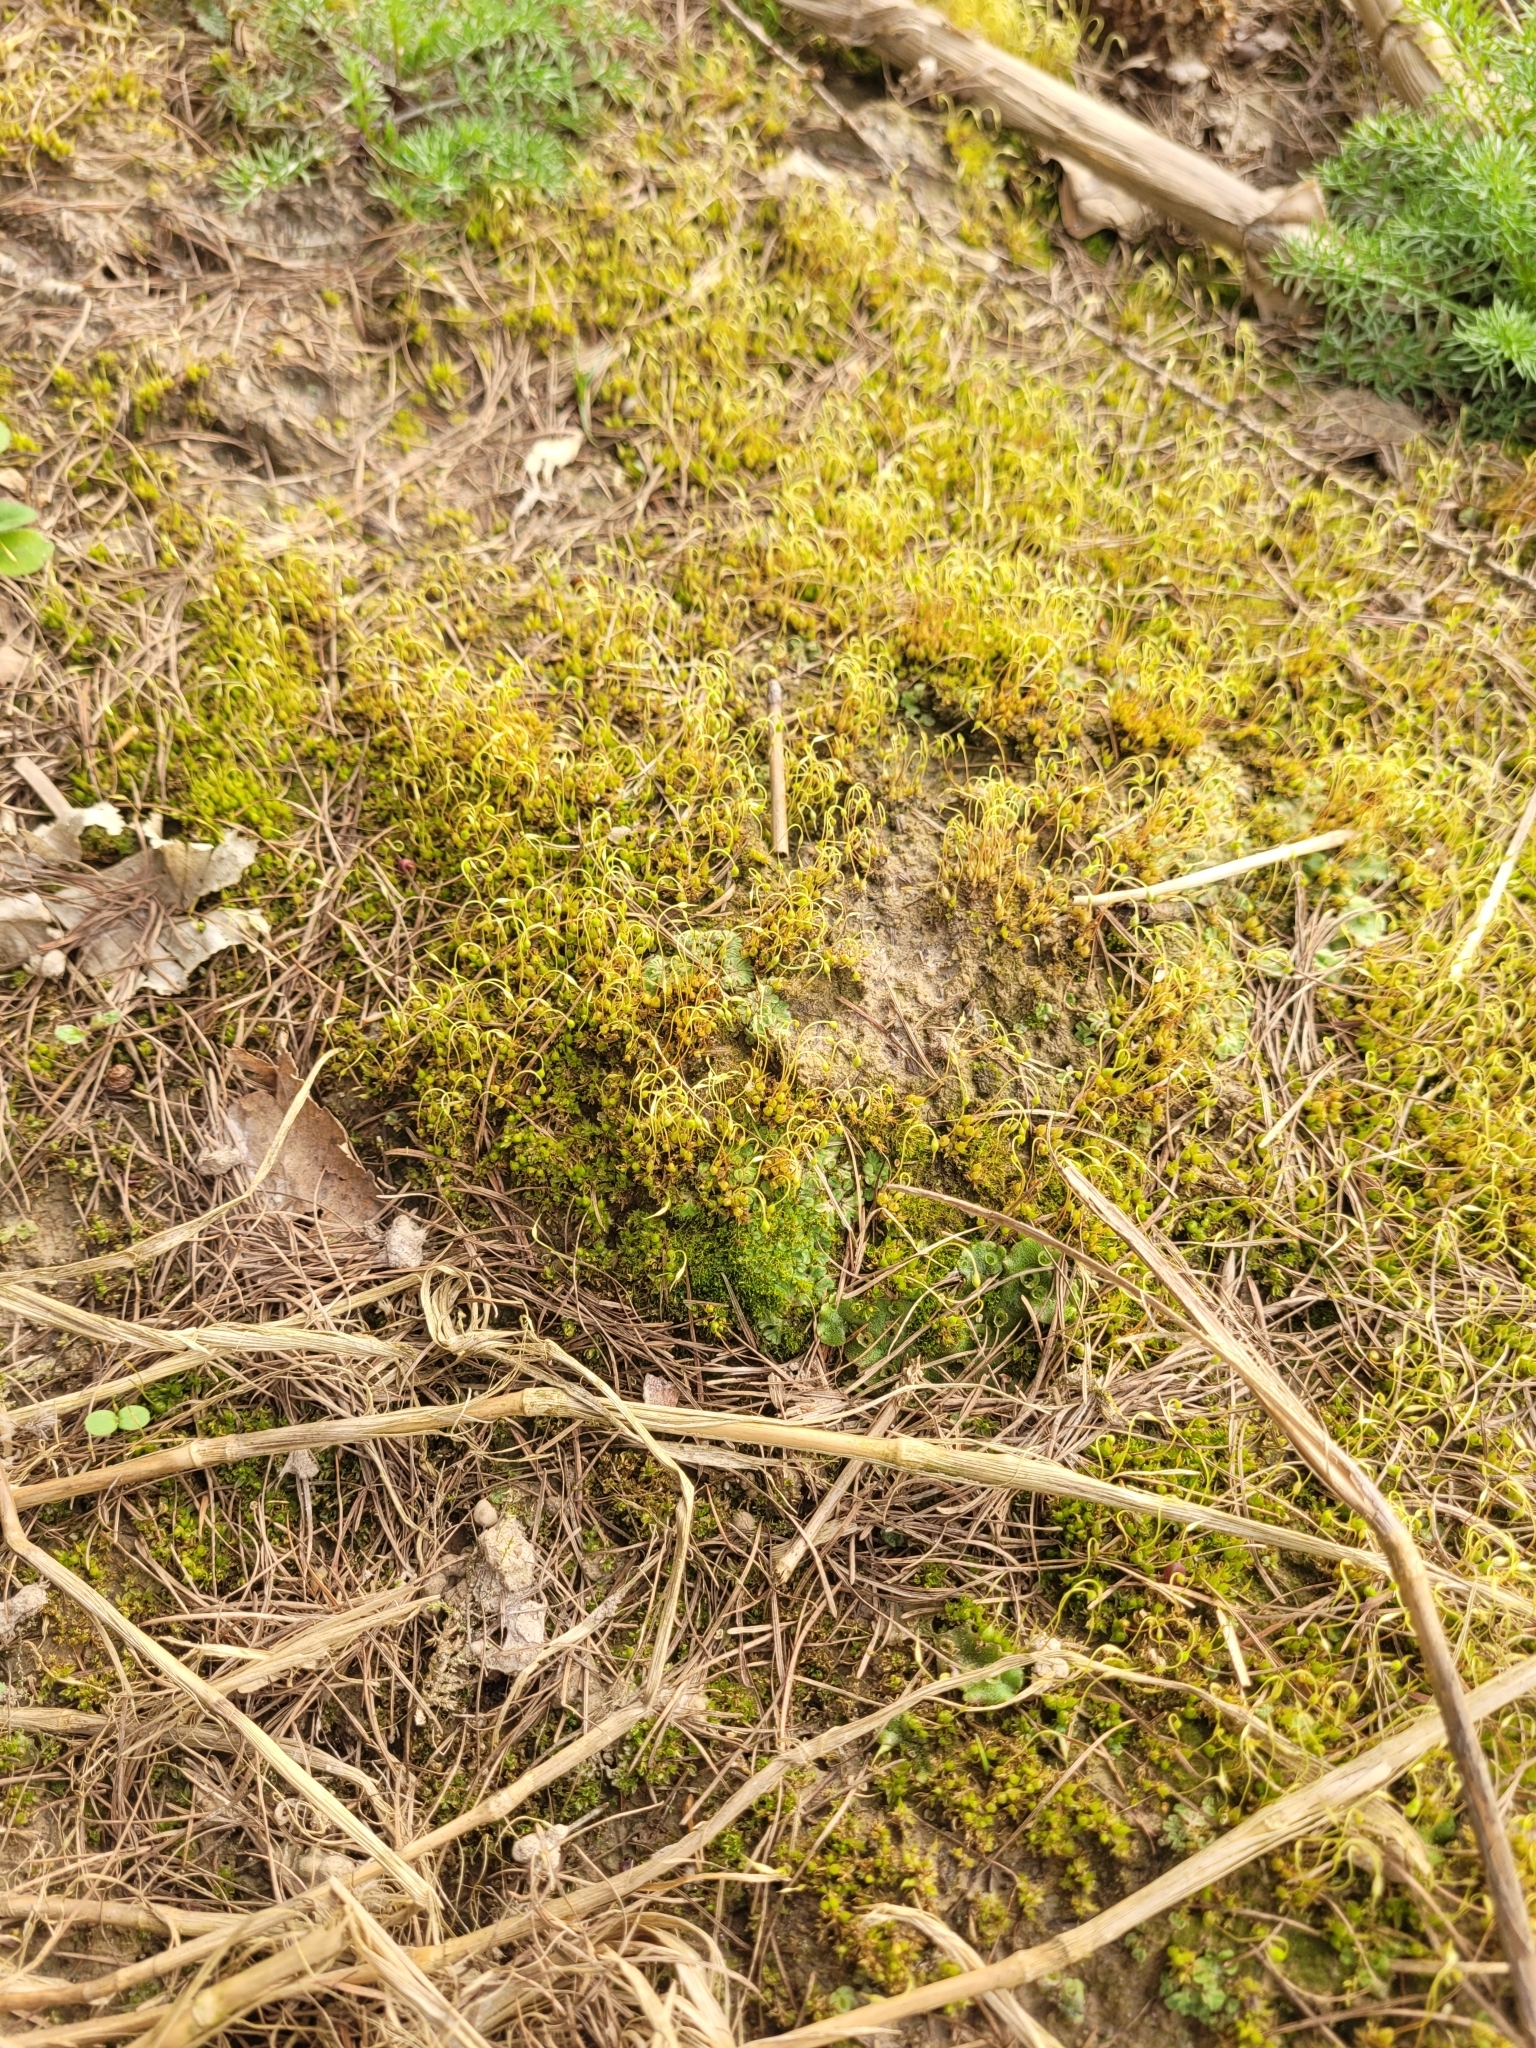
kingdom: Plantae
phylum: Bryophyta
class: Bryopsida
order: Funariales
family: Funariaceae
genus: Funaria
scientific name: Funaria hygrometrica
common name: Common cord moss
